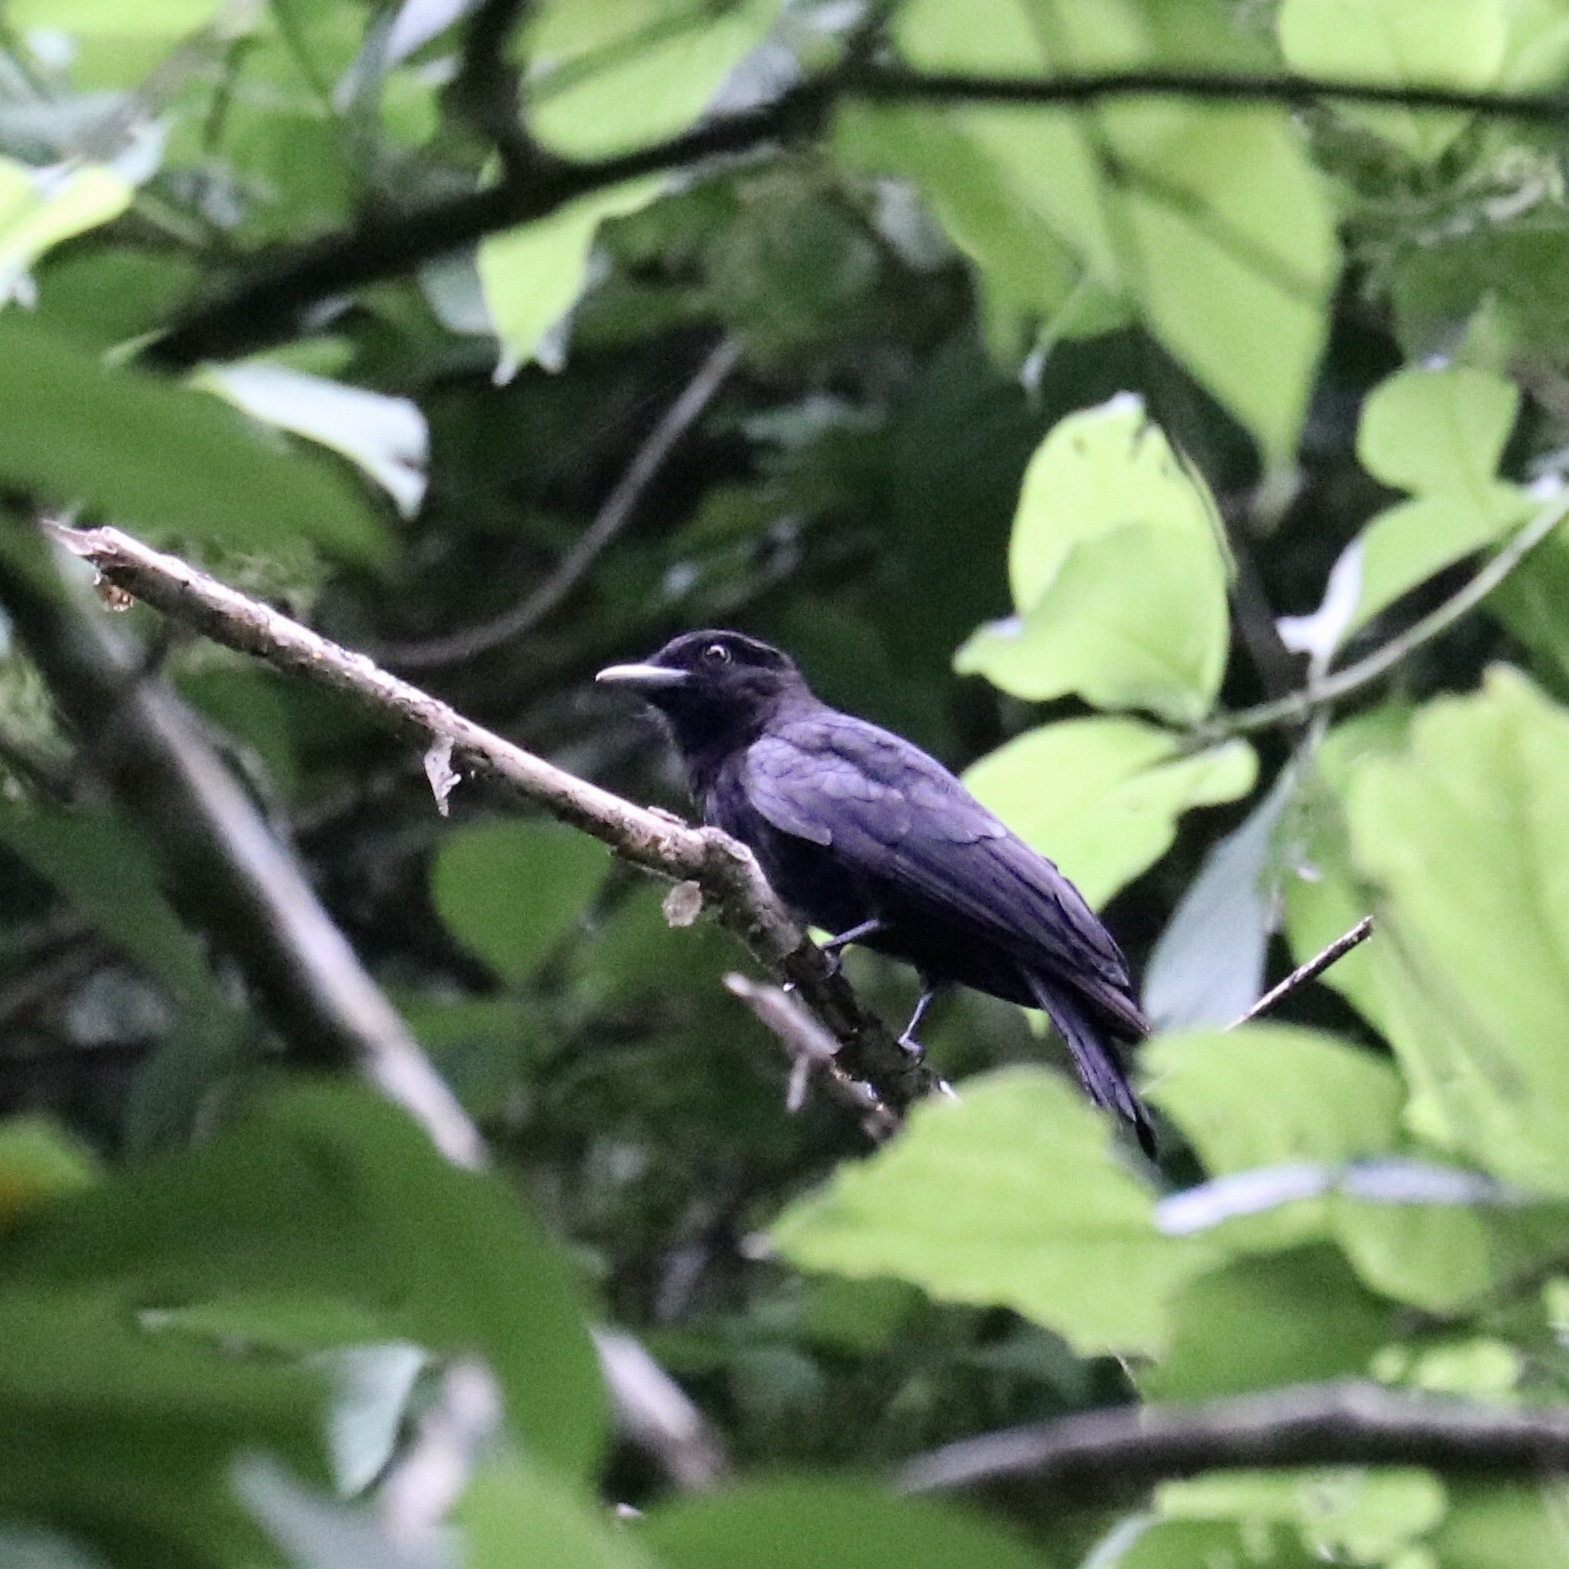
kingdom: Animalia
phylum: Chordata
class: Aves
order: Passeriformes
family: Cotingidae
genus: Querula
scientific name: Querula purpurata
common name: Purple-throated fruitcrow
